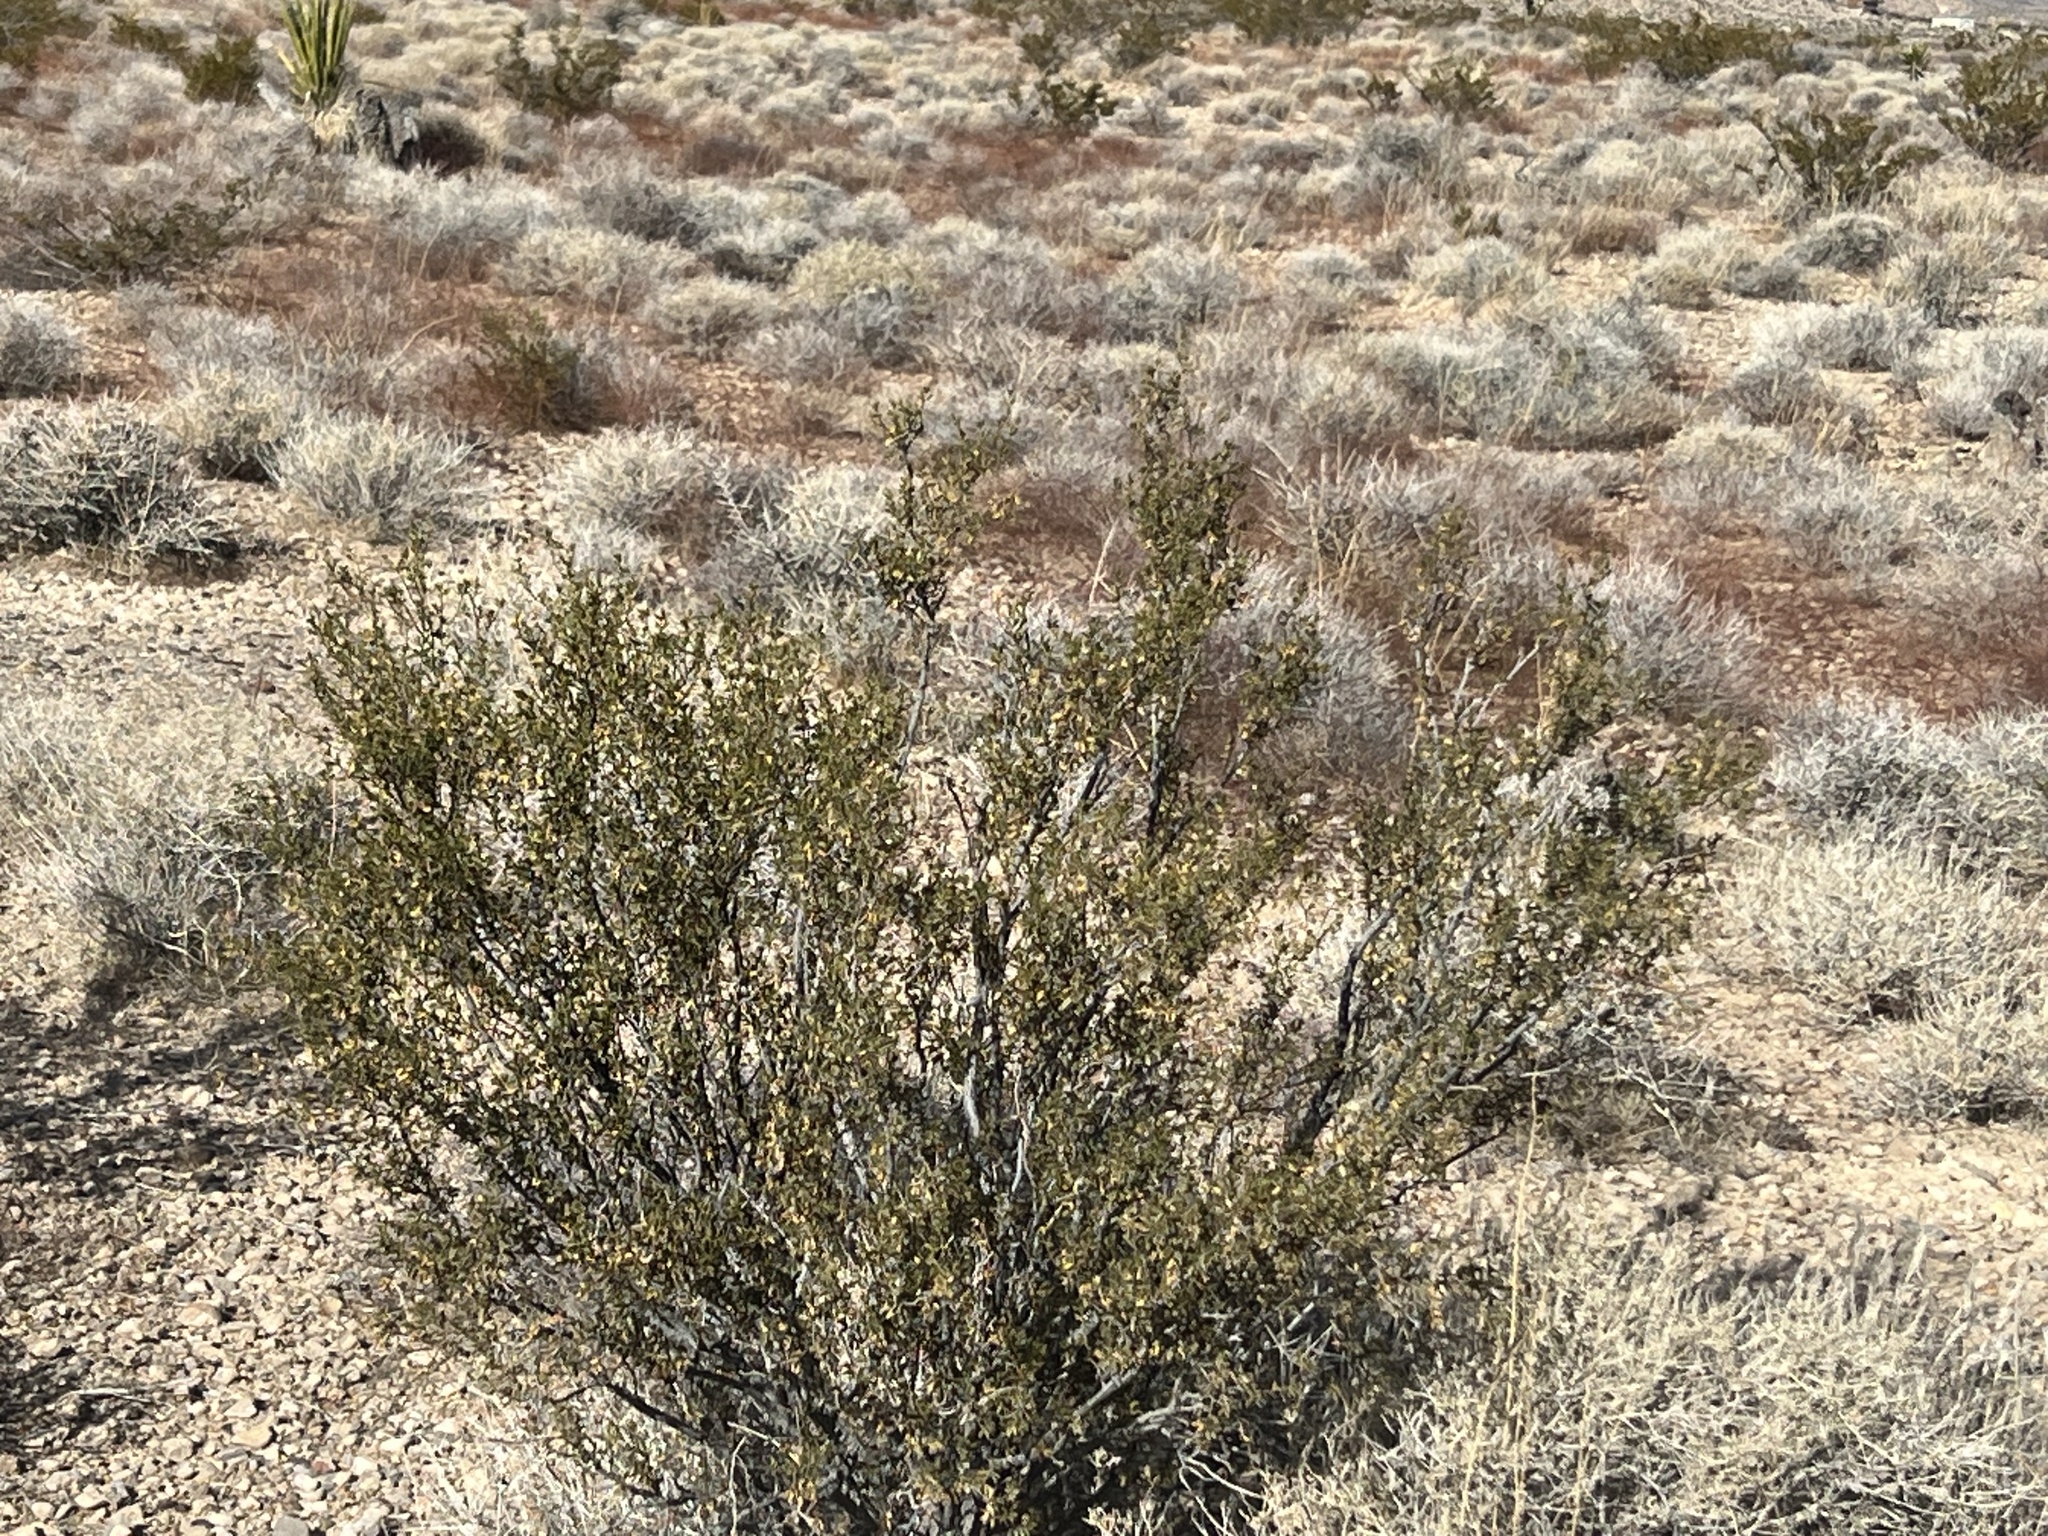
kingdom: Plantae
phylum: Tracheophyta
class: Magnoliopsida
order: Zygophyllales
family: Zygophyllaceae
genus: Larrea
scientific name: Larrea tridentata
